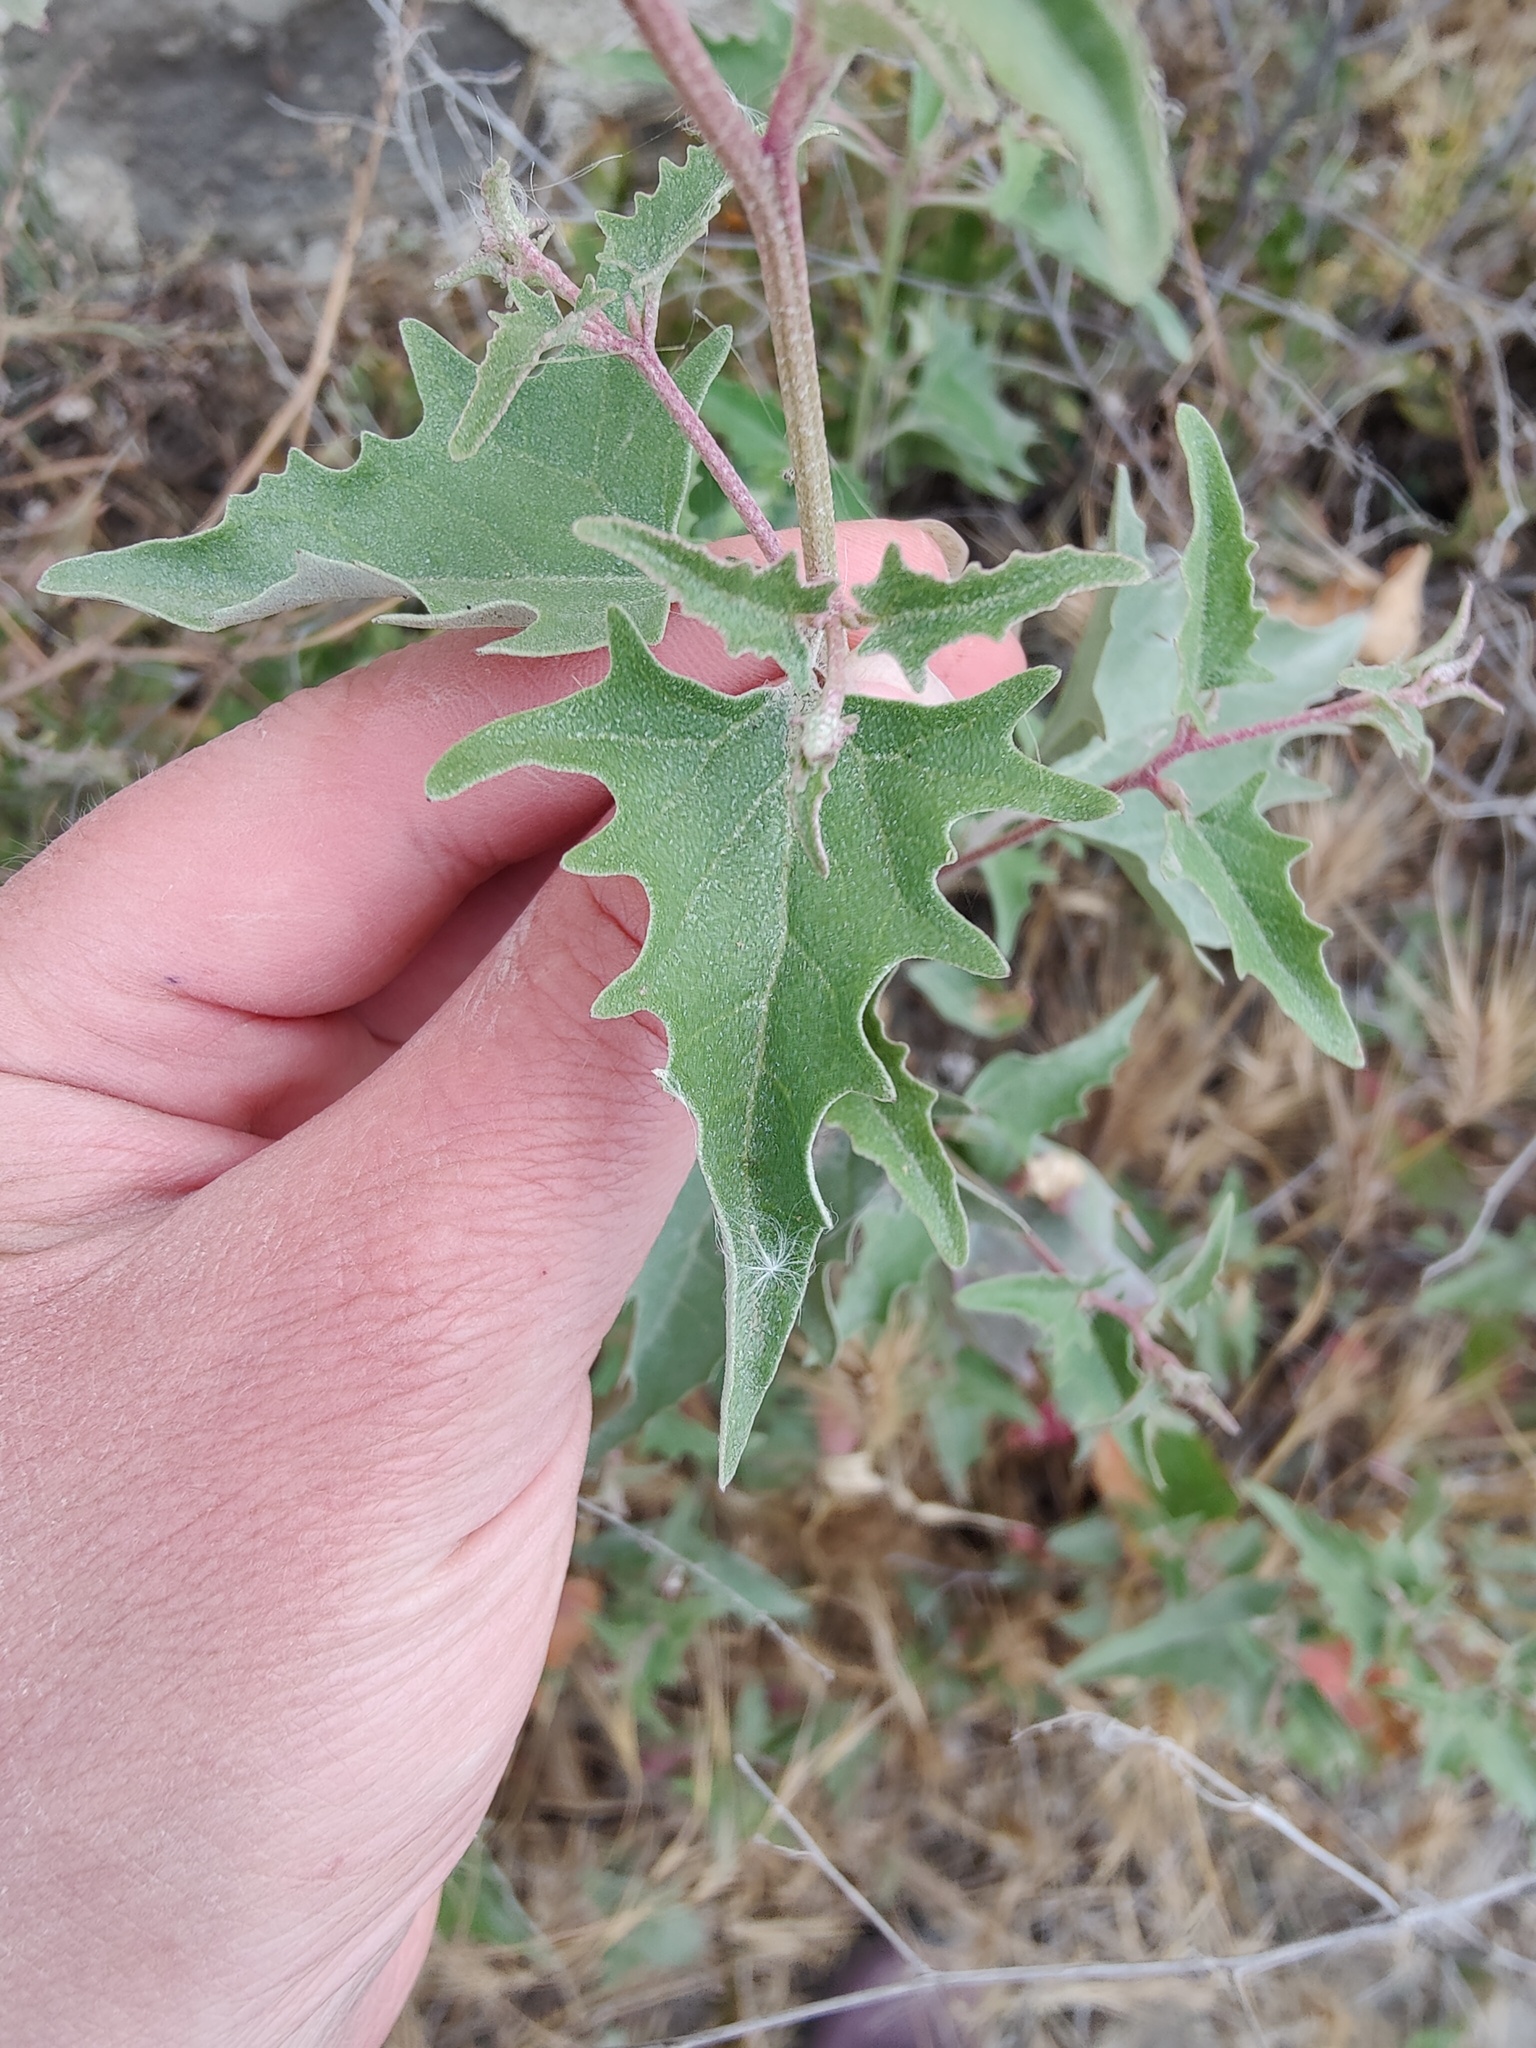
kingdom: Plantae
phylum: Tracheophyta
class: Magnoliopsida
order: Caryophyllales
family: Amaranthaceae
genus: Atriplex
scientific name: Atriplex tatarica
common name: Tatarian orache
